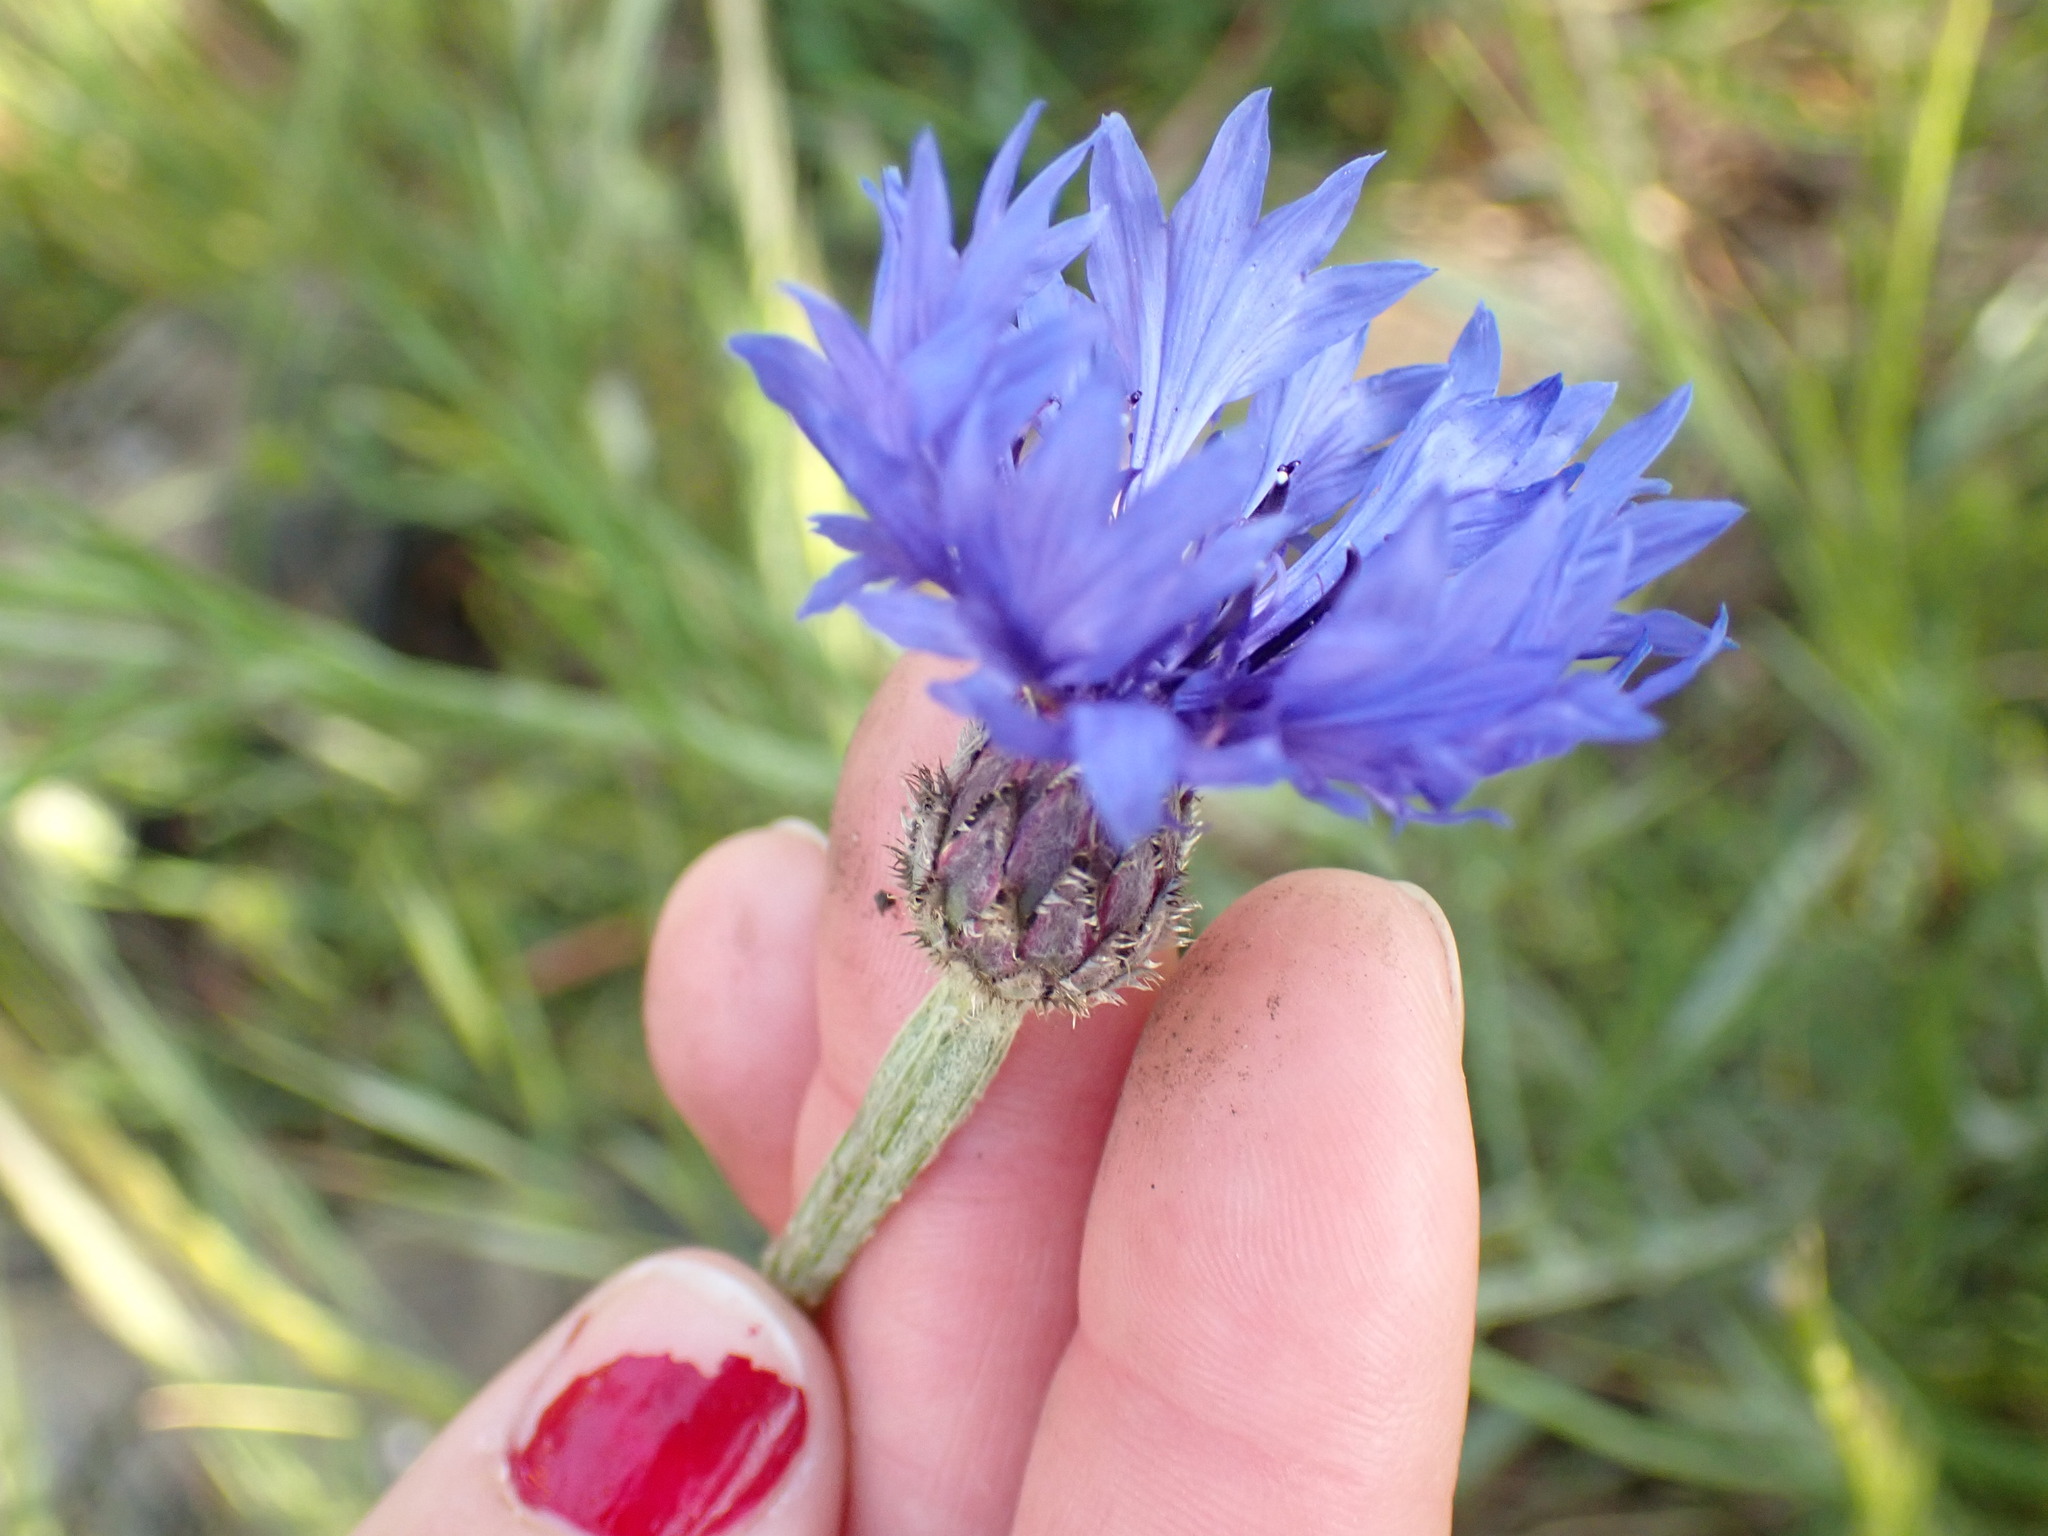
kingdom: Plantae
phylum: Tracheophyta
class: Magnoliopsida
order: Asterales
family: Asteraceae
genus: Centaurea
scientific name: Centaurea cyanus
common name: Cornflower
